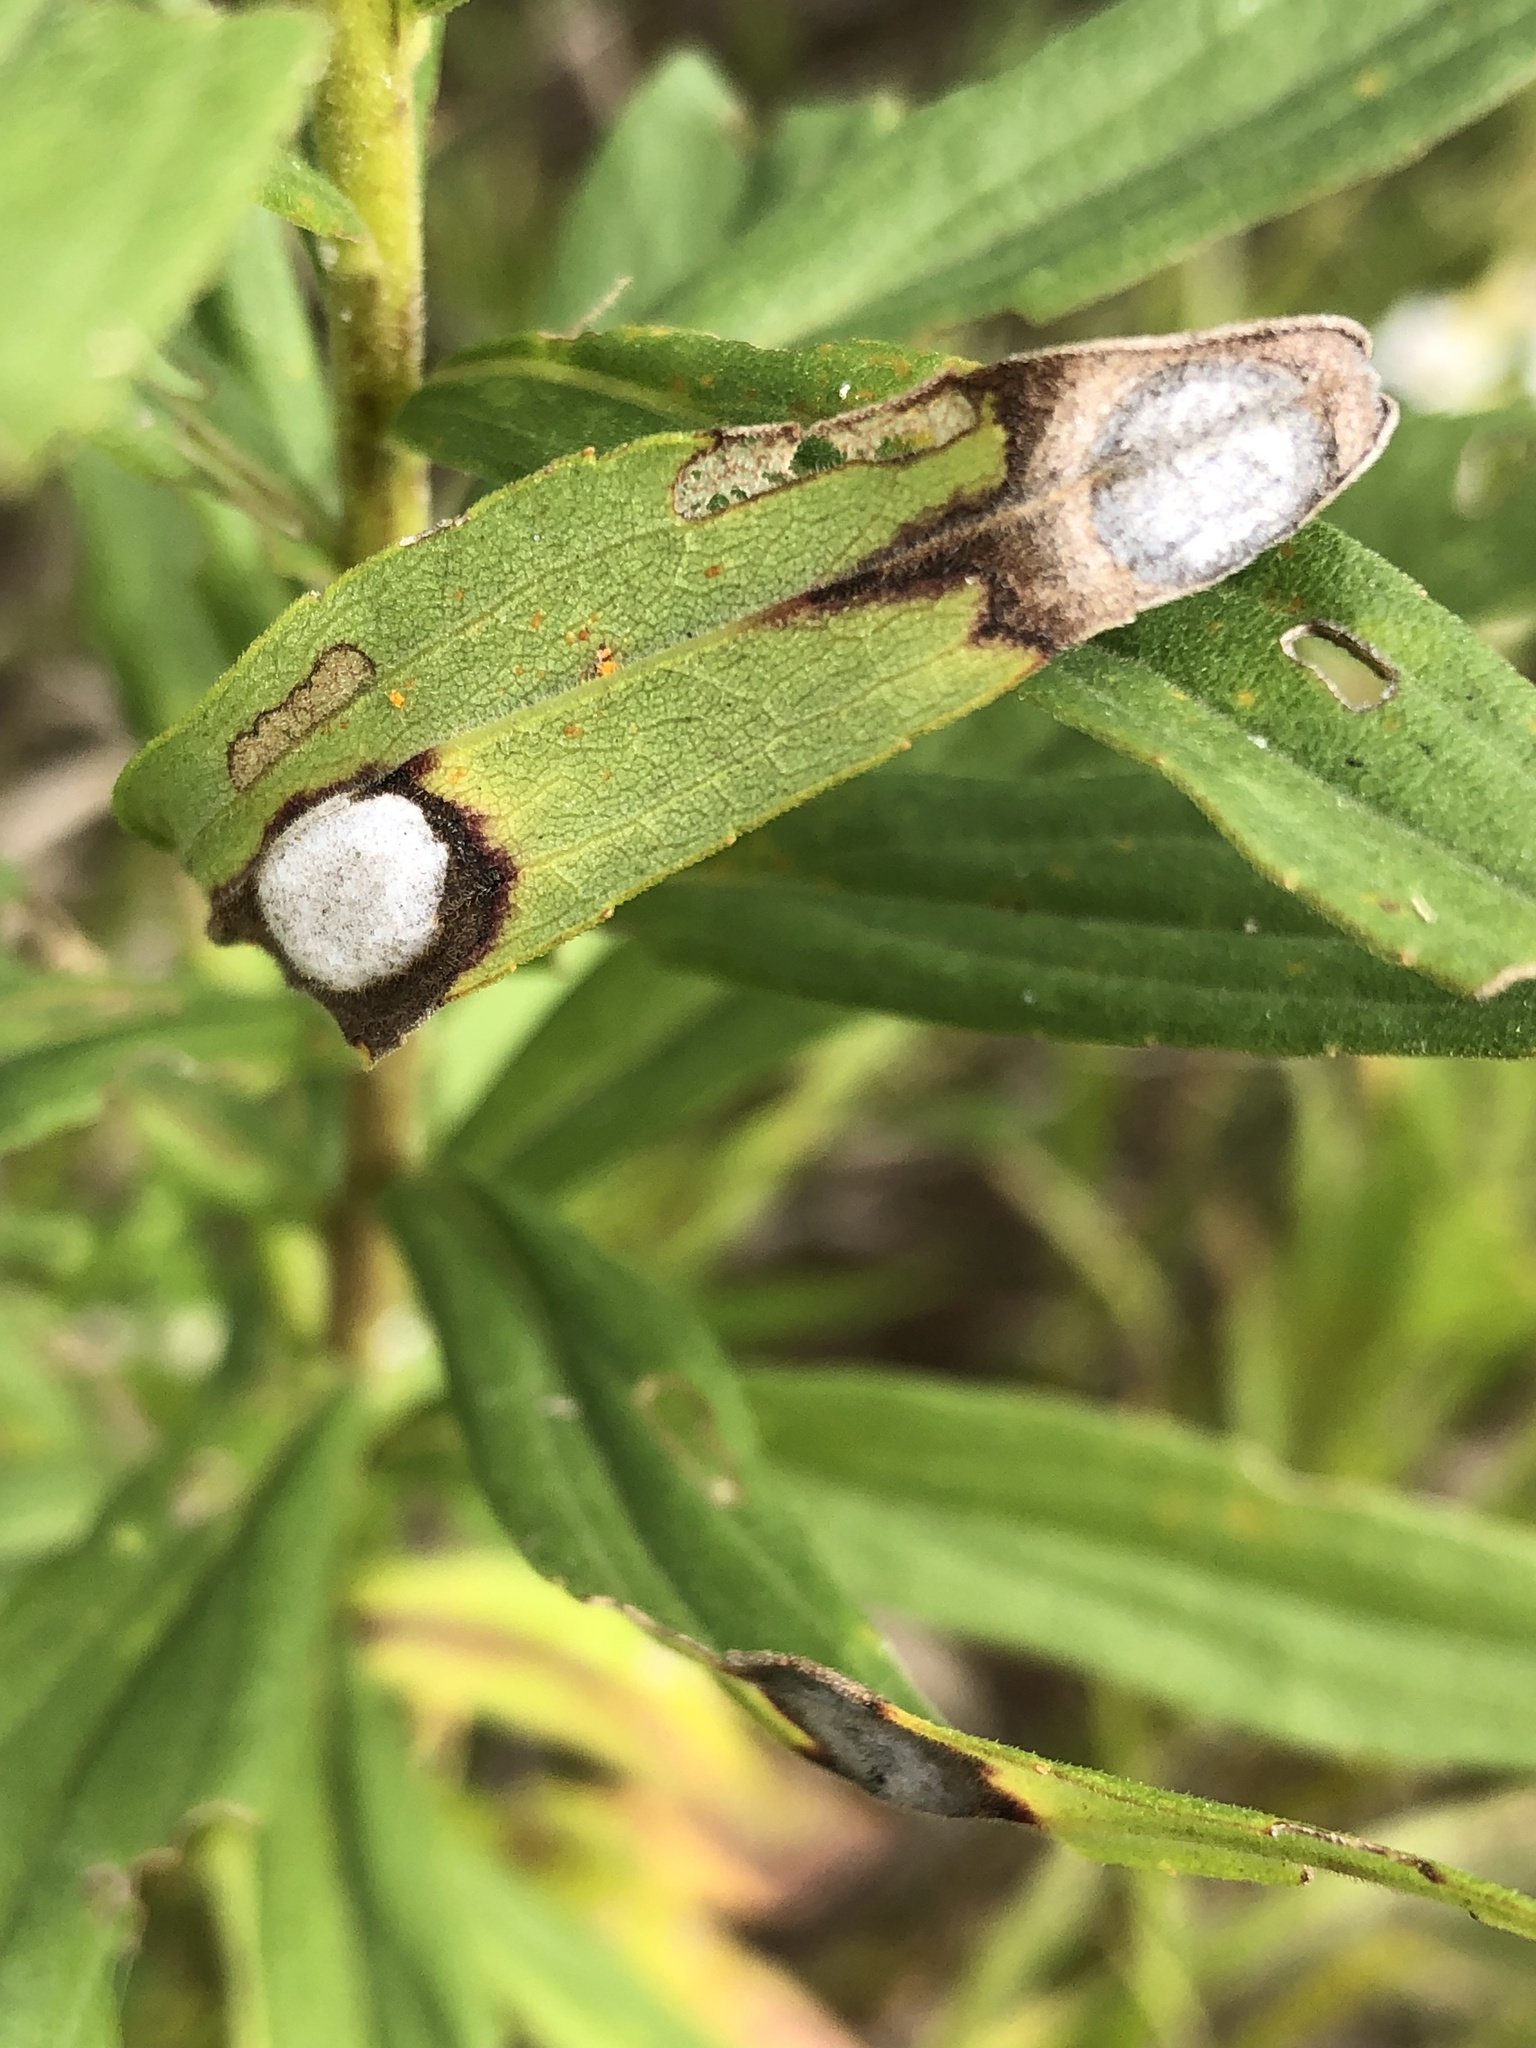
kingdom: Animalia
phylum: Arthropoda
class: Insecta
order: Diptera
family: Cecidomyiidae
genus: Asteromyia
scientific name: Asteromyia carbonifera
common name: Carbonifera goldenrod gall midge
